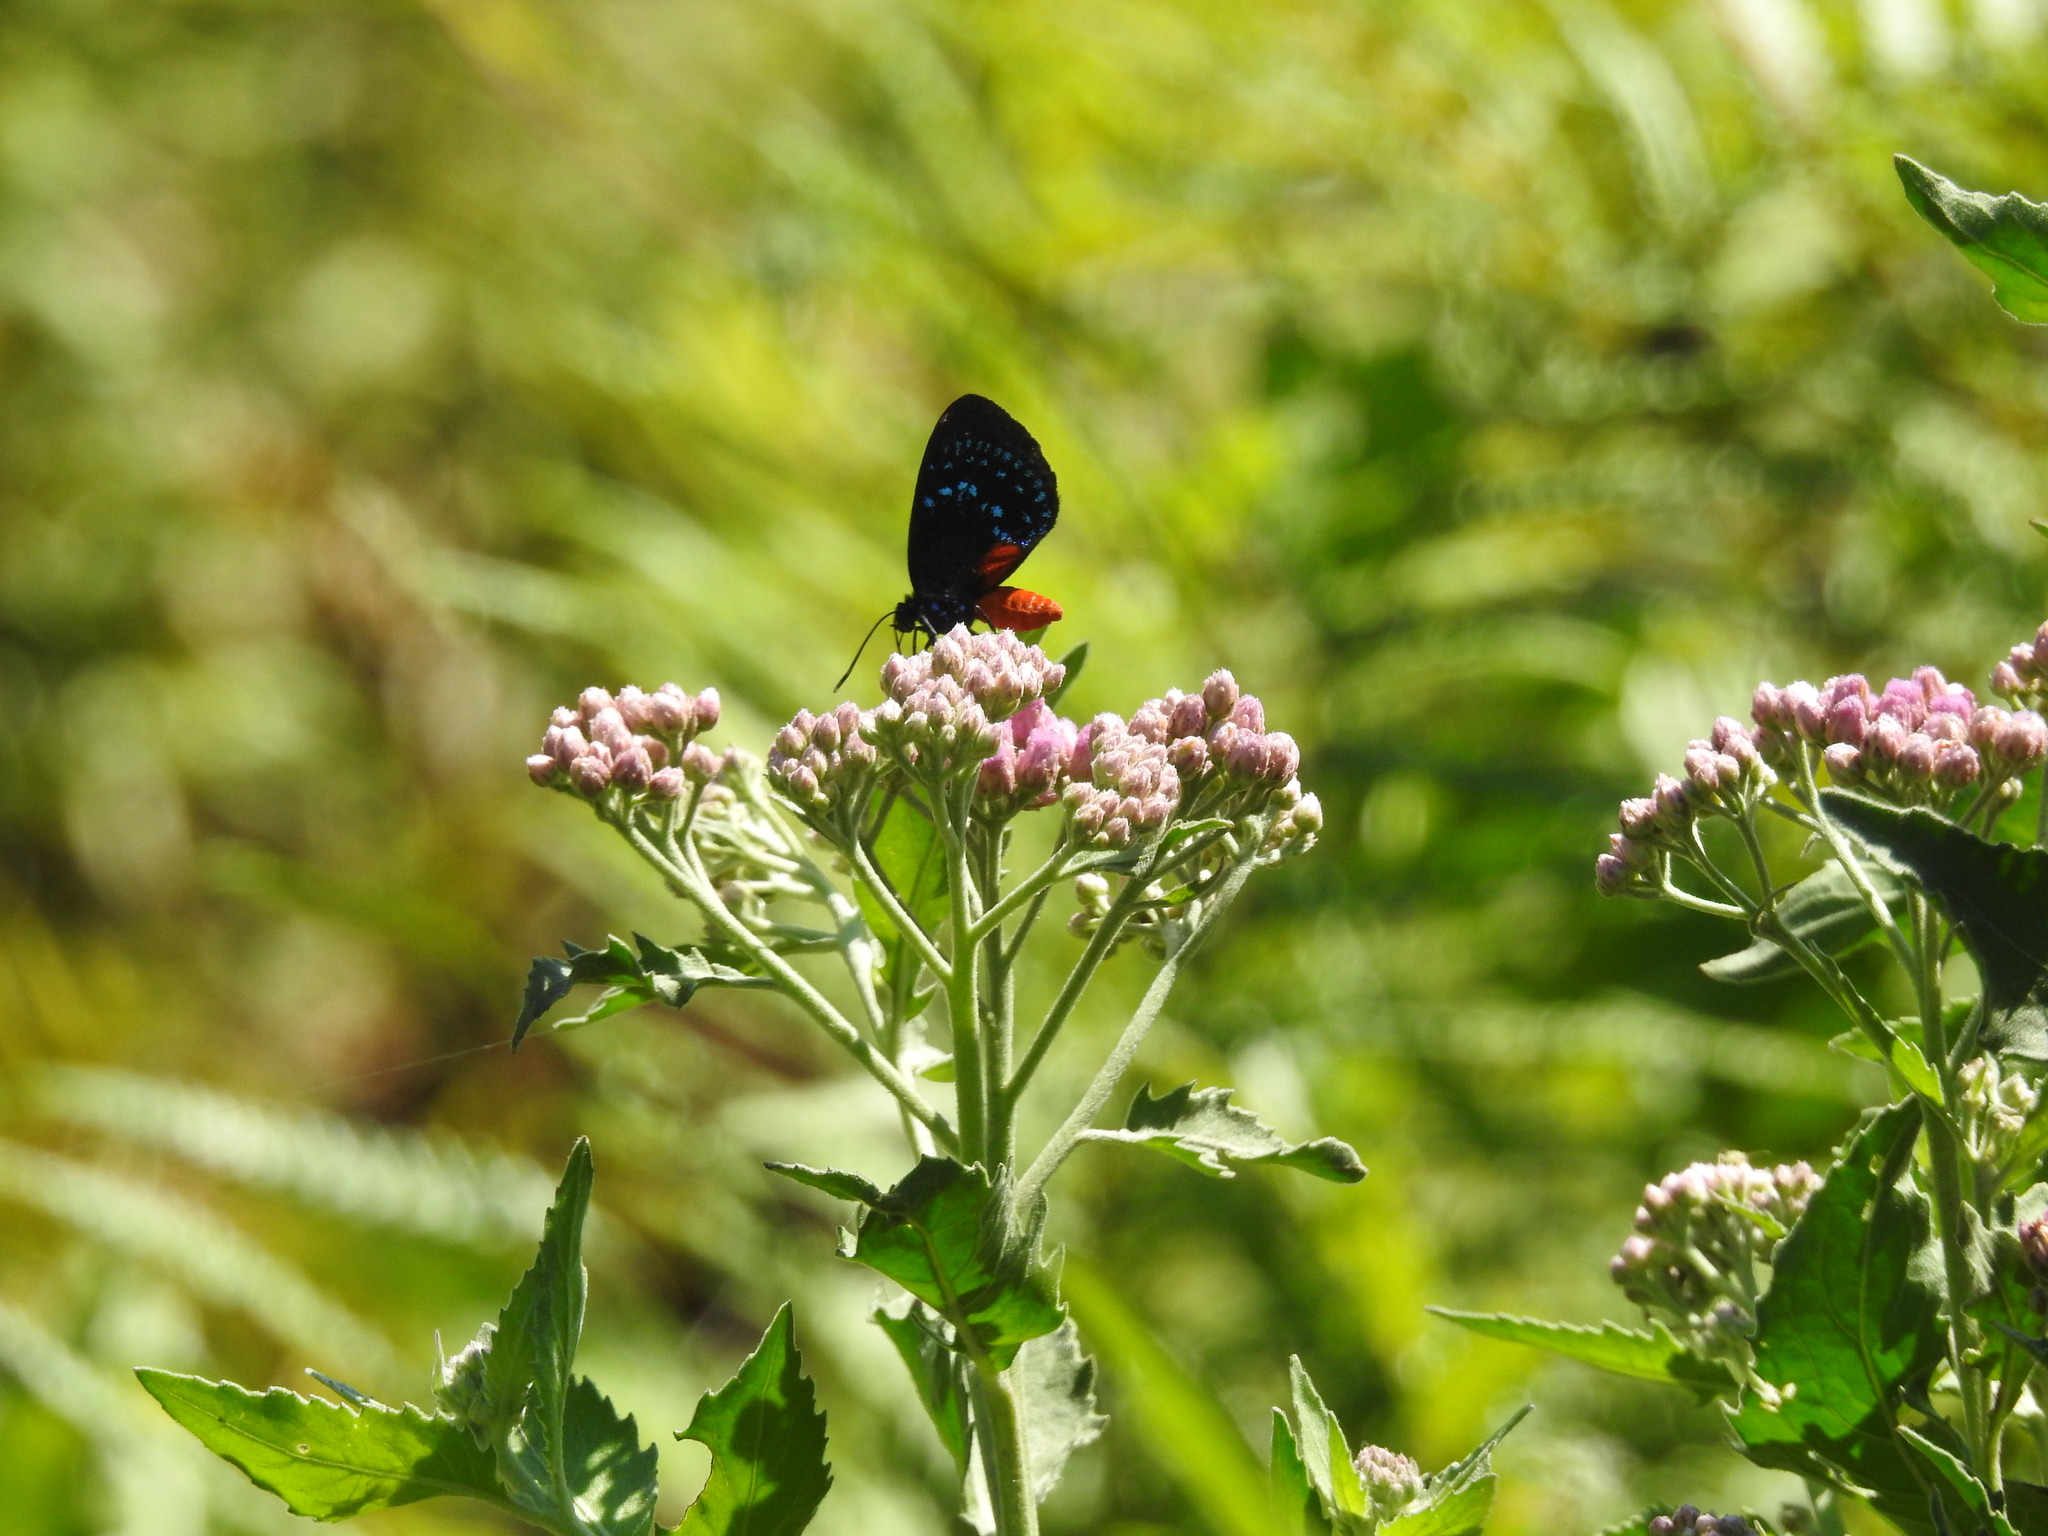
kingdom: Animalia
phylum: Arthropoda
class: Insecta
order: Lepidoptera
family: Lycaenidae
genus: Eumaeus
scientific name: Eumaeus atala
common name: Atala
